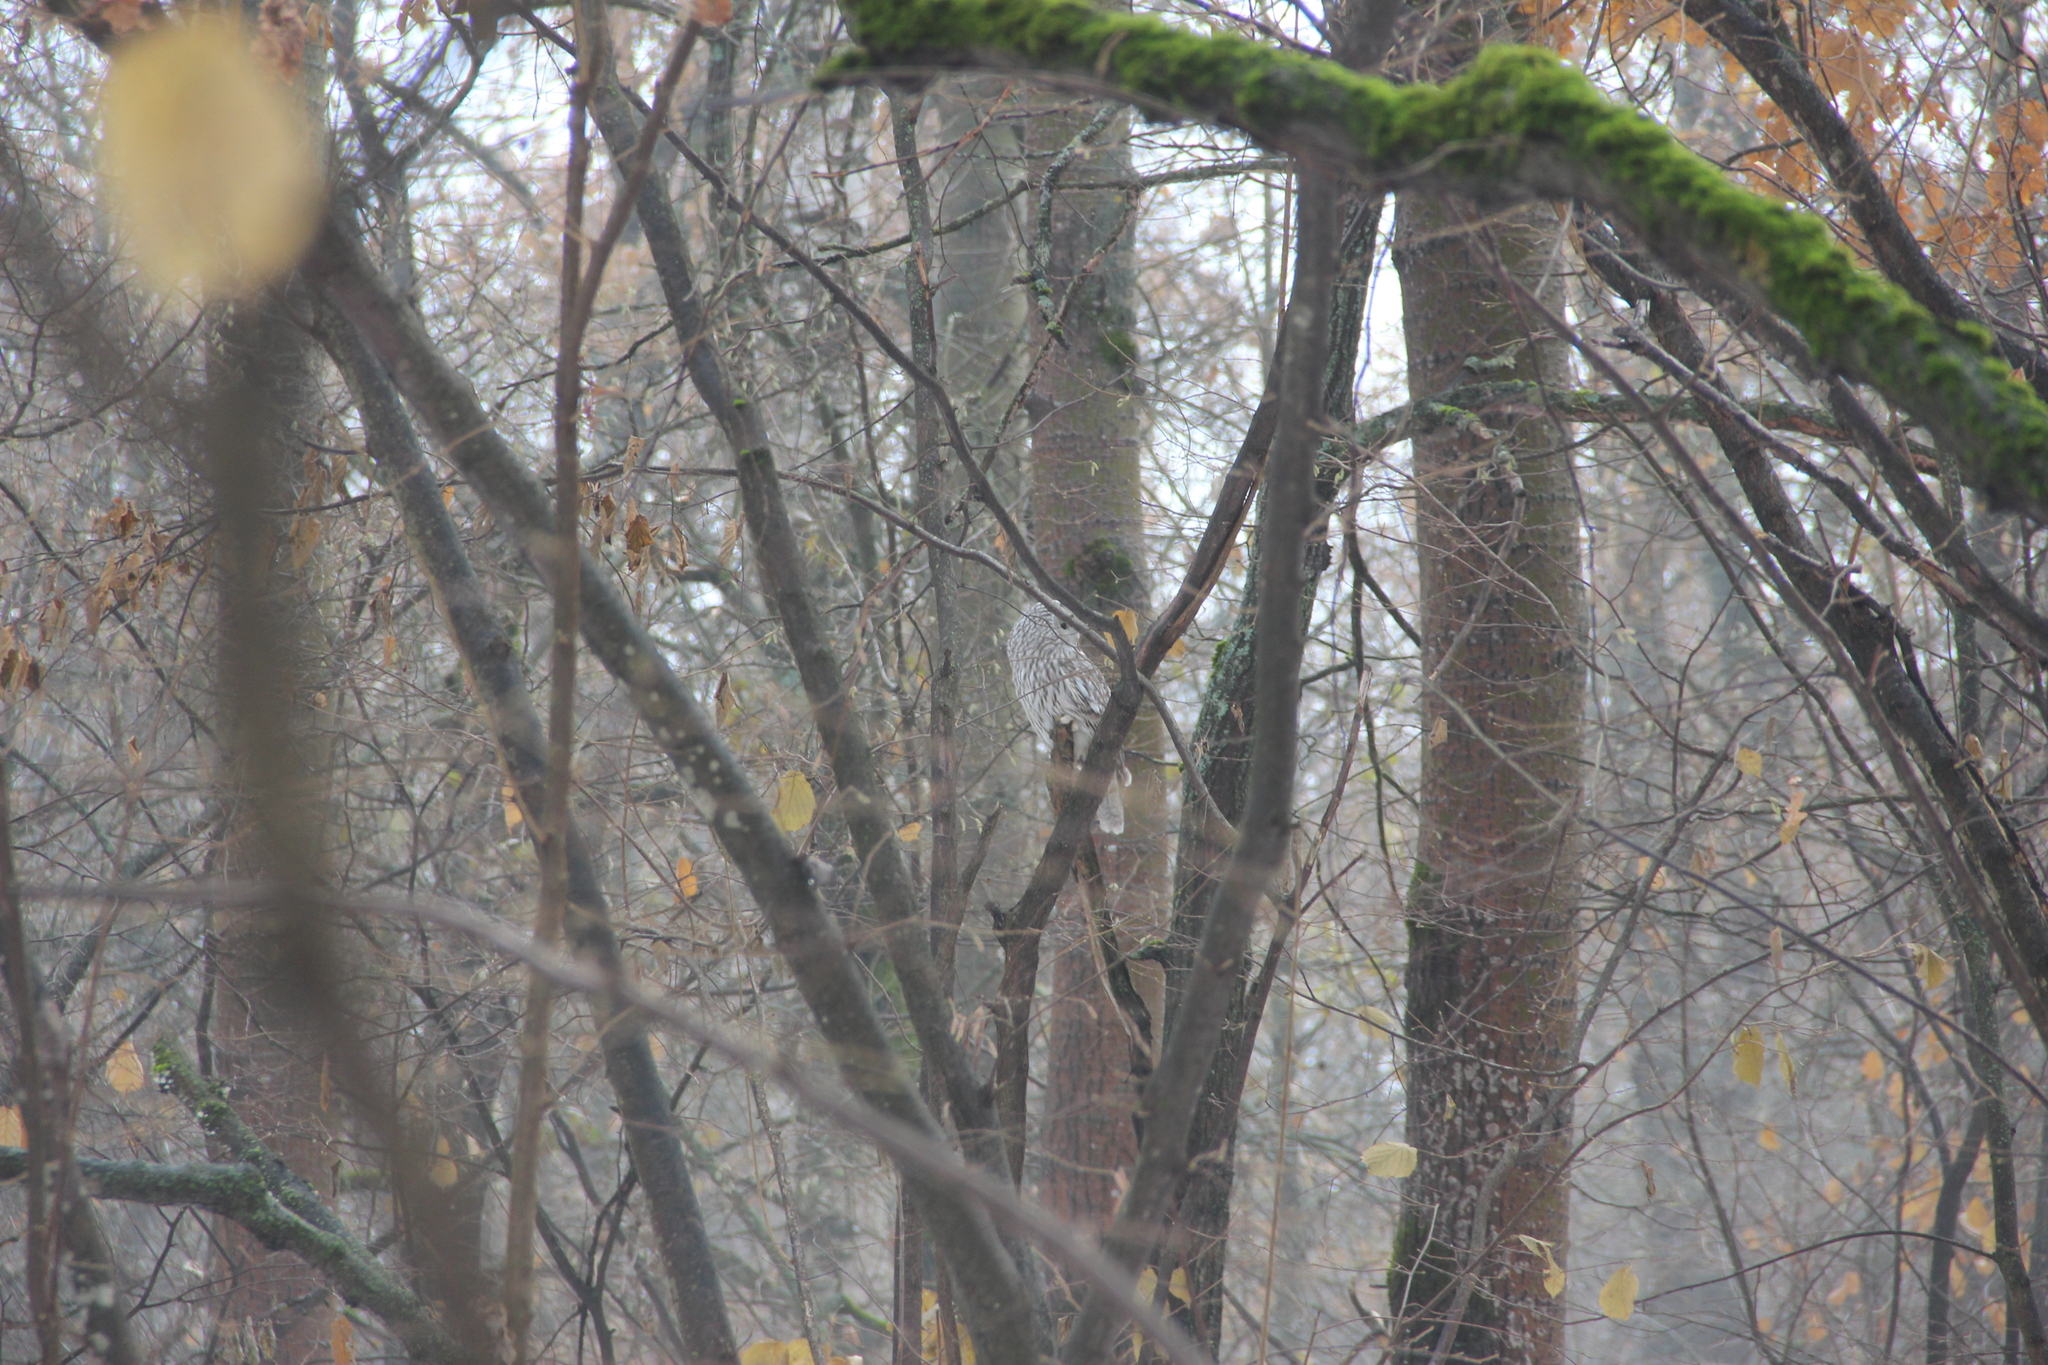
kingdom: Animalia
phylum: Chordata
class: Aves
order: Strigiformes
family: Strigidae
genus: Strix
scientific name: Strix uralensis
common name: Ural owl
